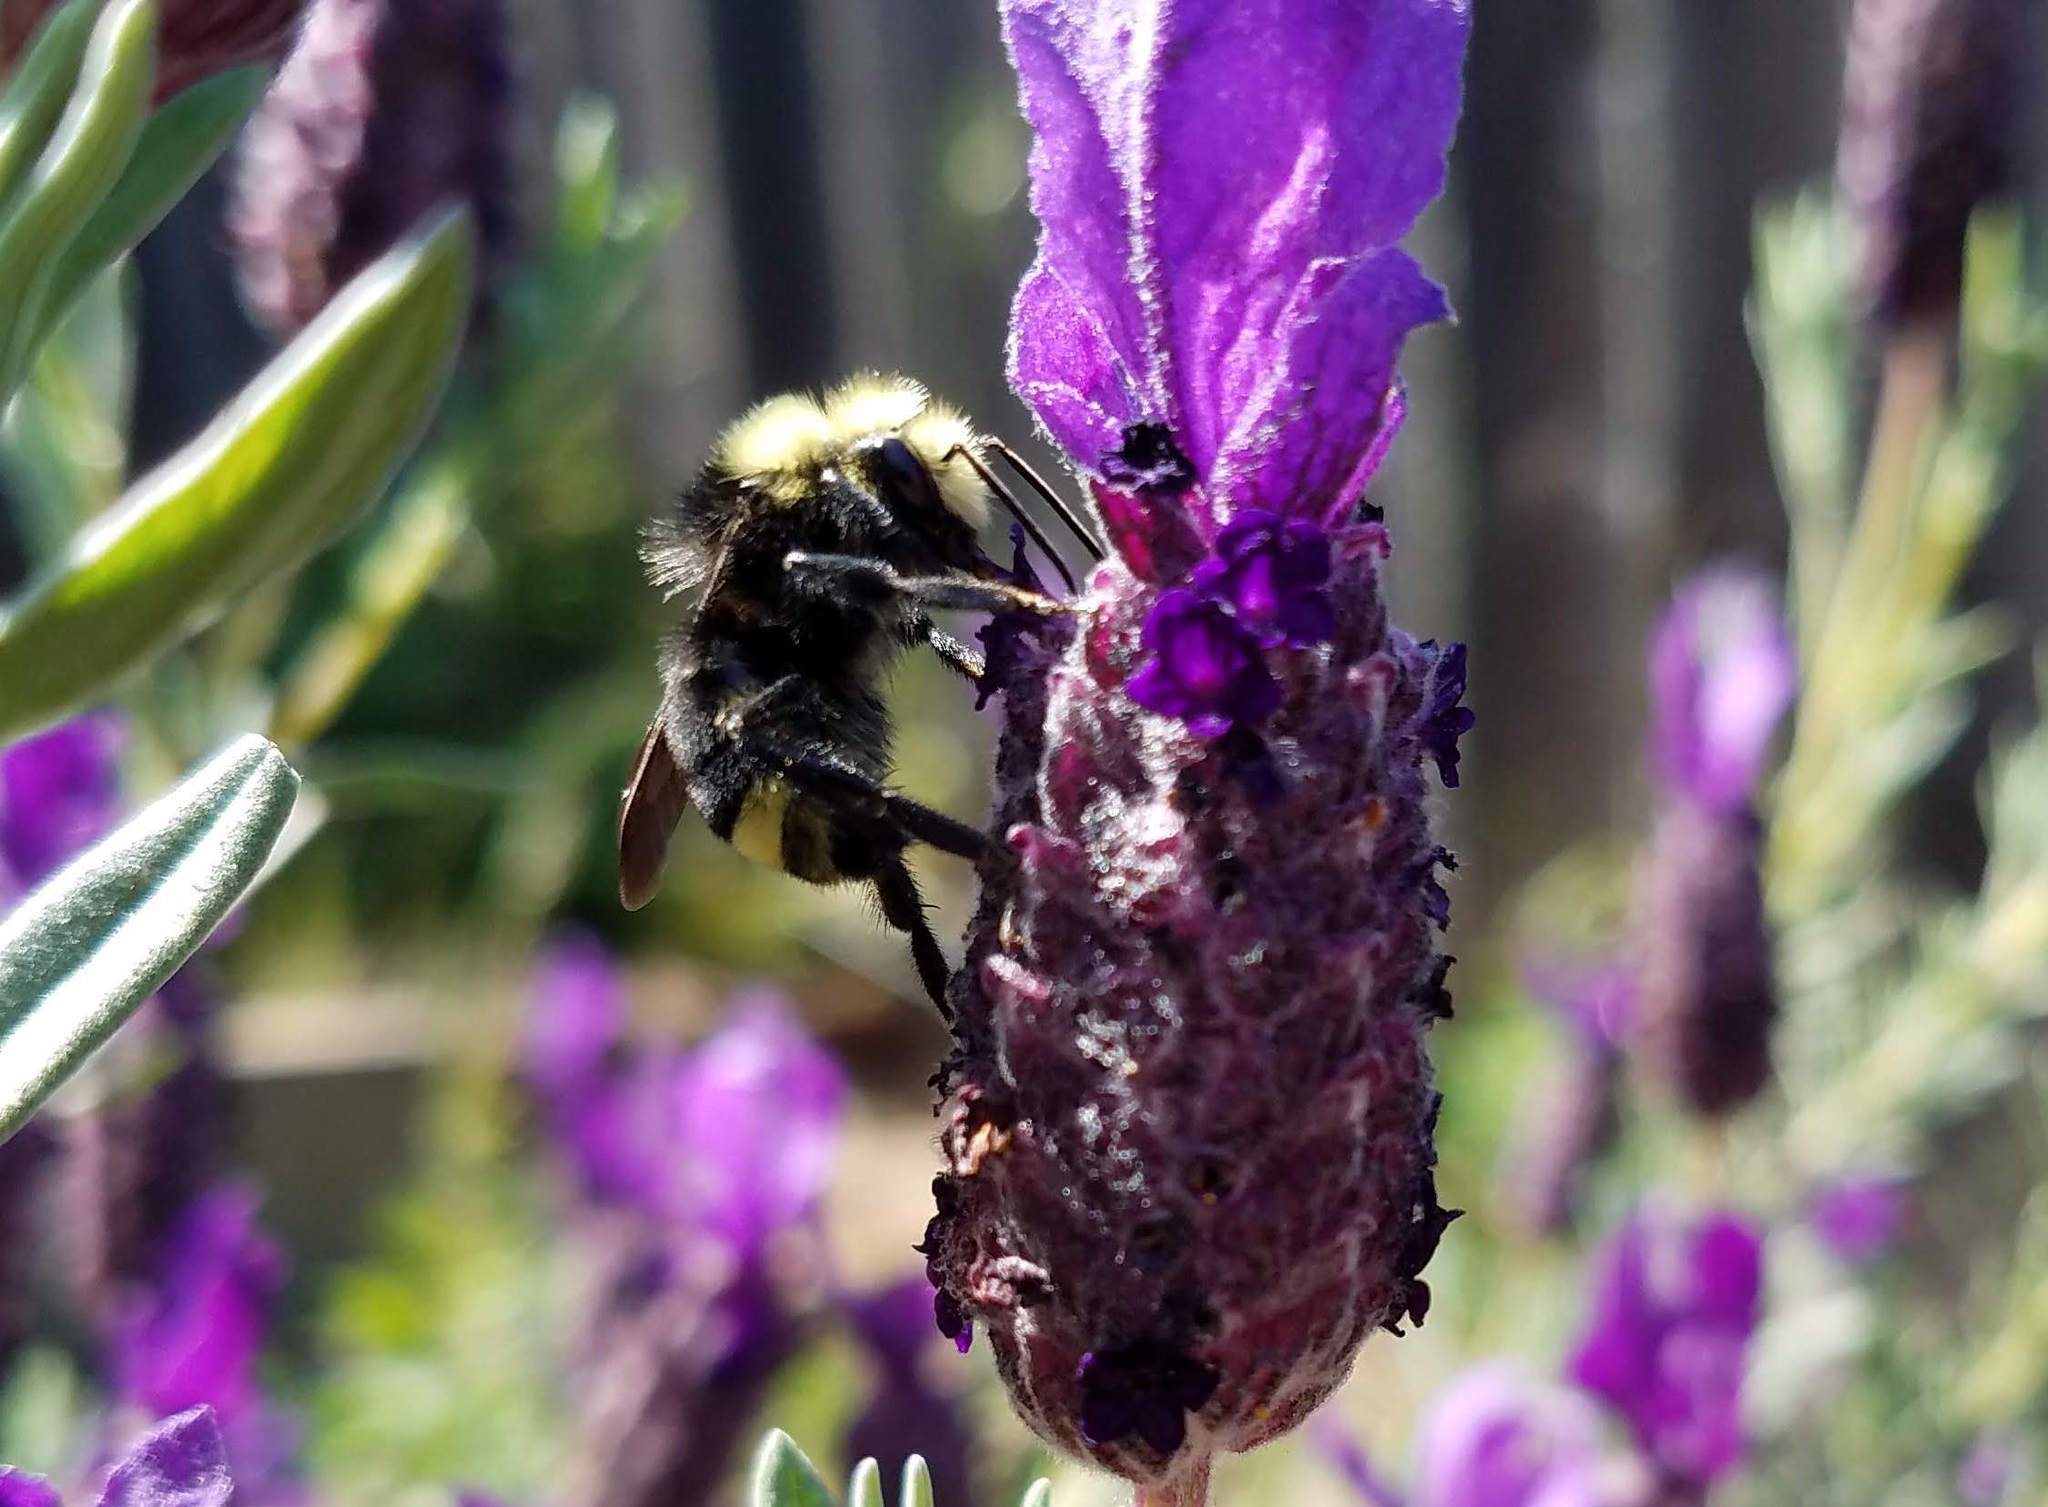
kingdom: Animalia
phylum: Arthropoda
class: Insecta
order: Hymenoptera
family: Apidae
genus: Bombus
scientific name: Bombus vosnesenskii
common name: Vosnesensky bumble bee
